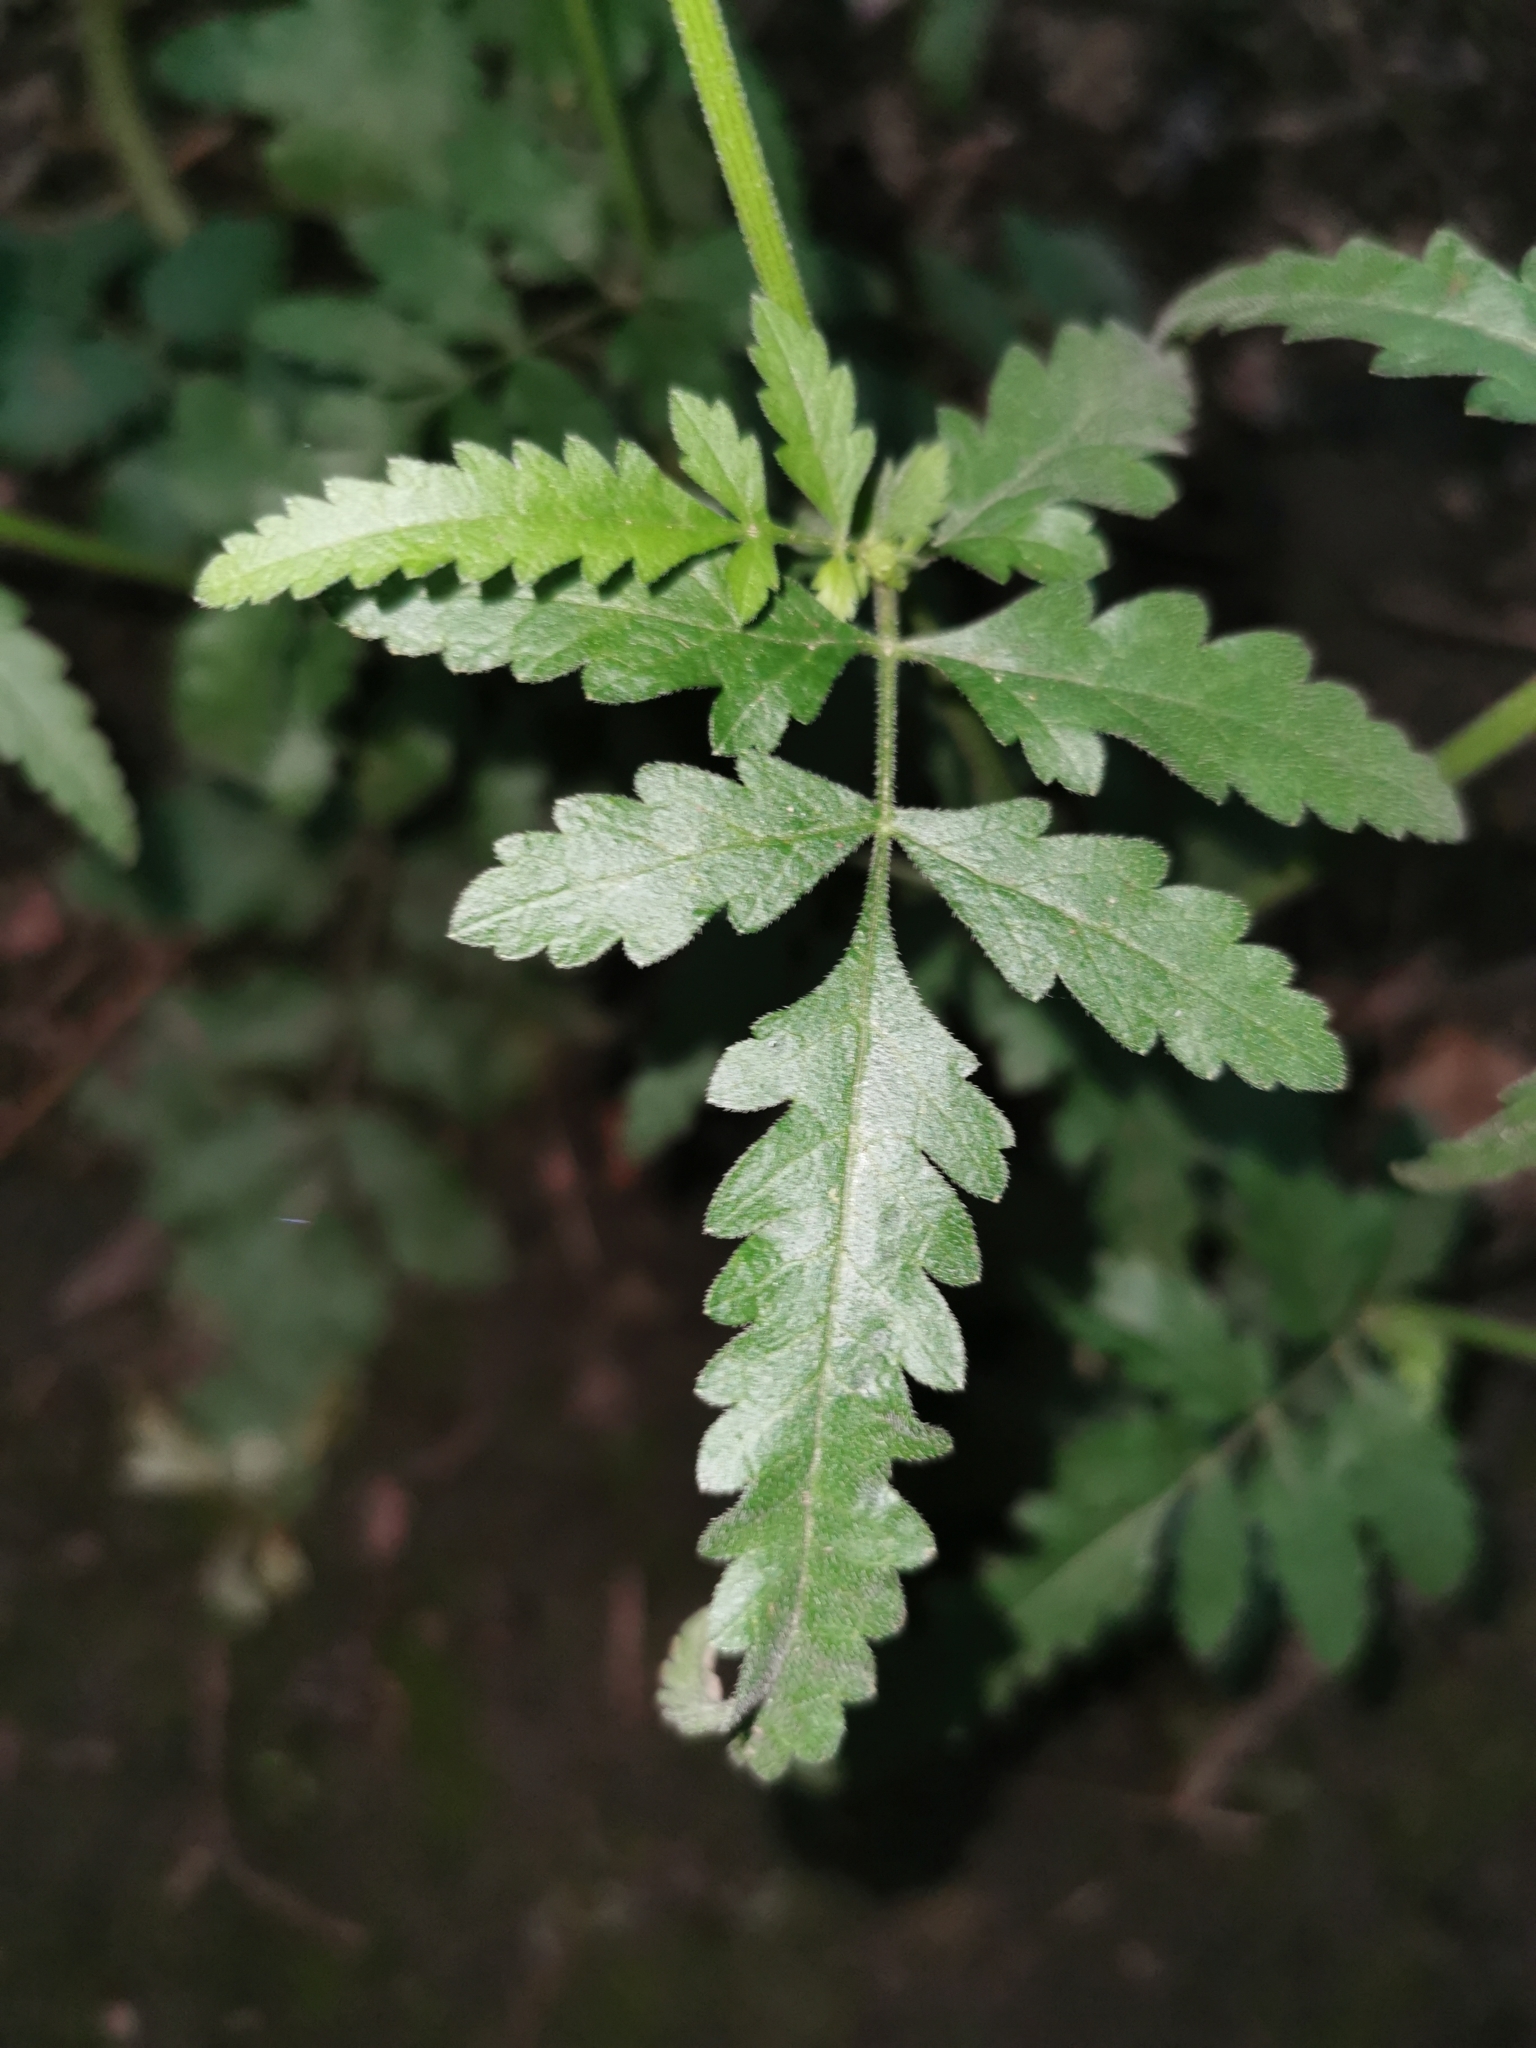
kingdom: Plantae
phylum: Tracheophyta
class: Magnoliopsida
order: Apiales
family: Apiaceae
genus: Tordylium
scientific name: Tordylium maximum
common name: Hartwort
